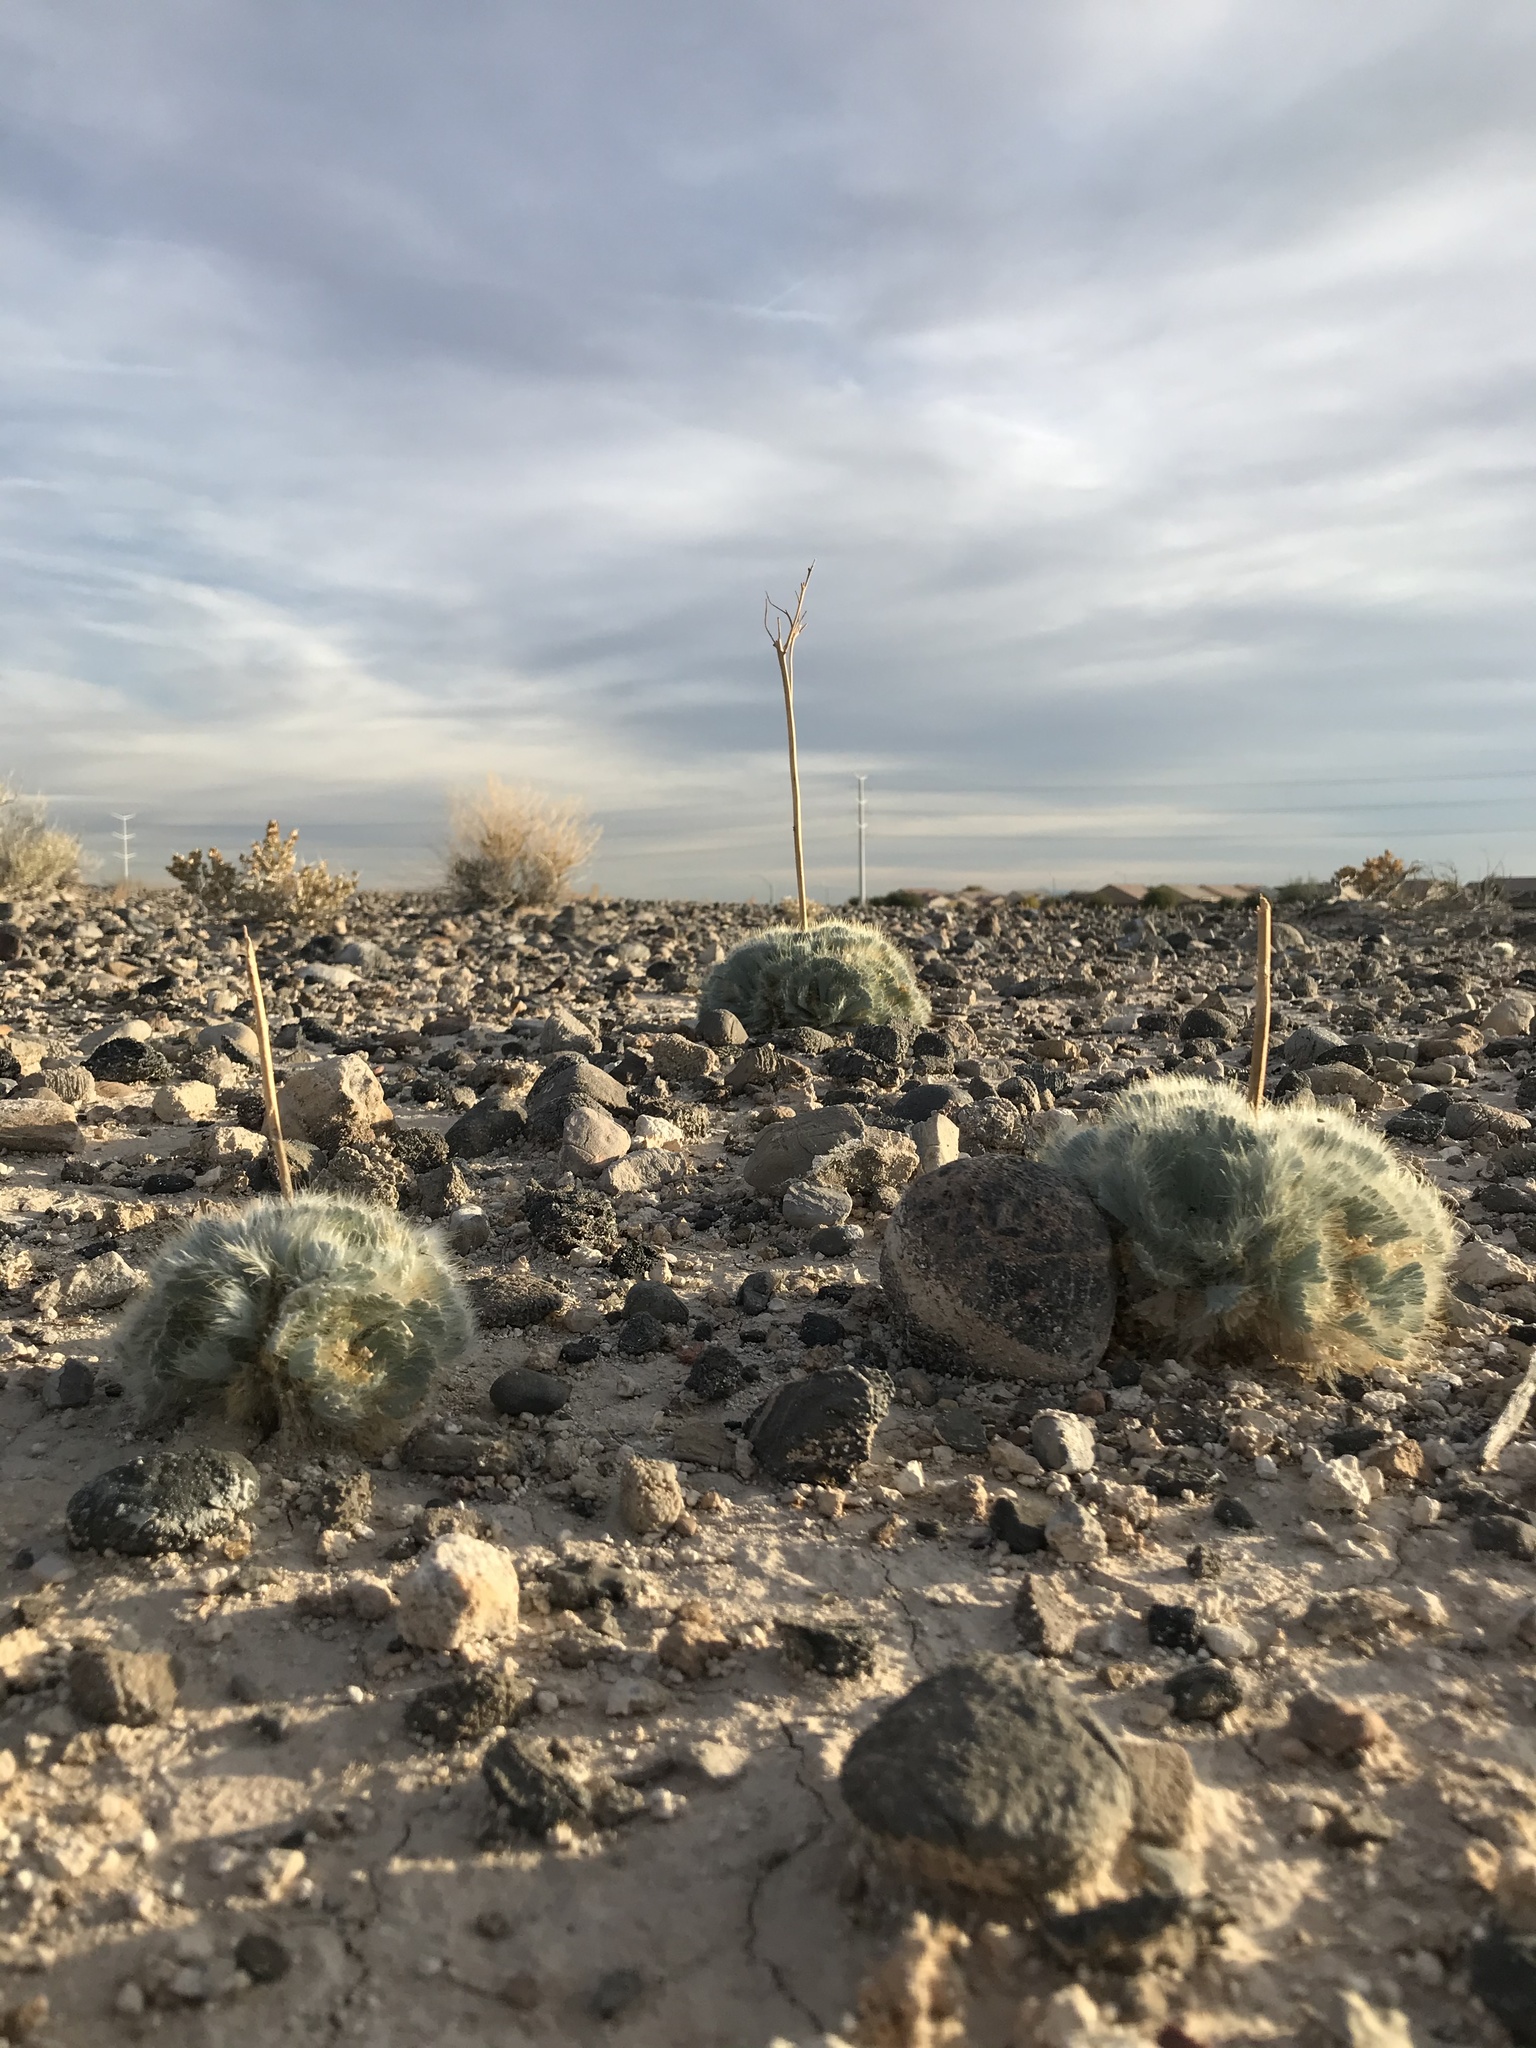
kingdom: Plantae
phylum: Tracheophyta
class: Magnoliopsida
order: Ranunculales
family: Papaveraceae
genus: Arctomecon
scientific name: Arctomecon californicum
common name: Golden bearclaw-poppy
